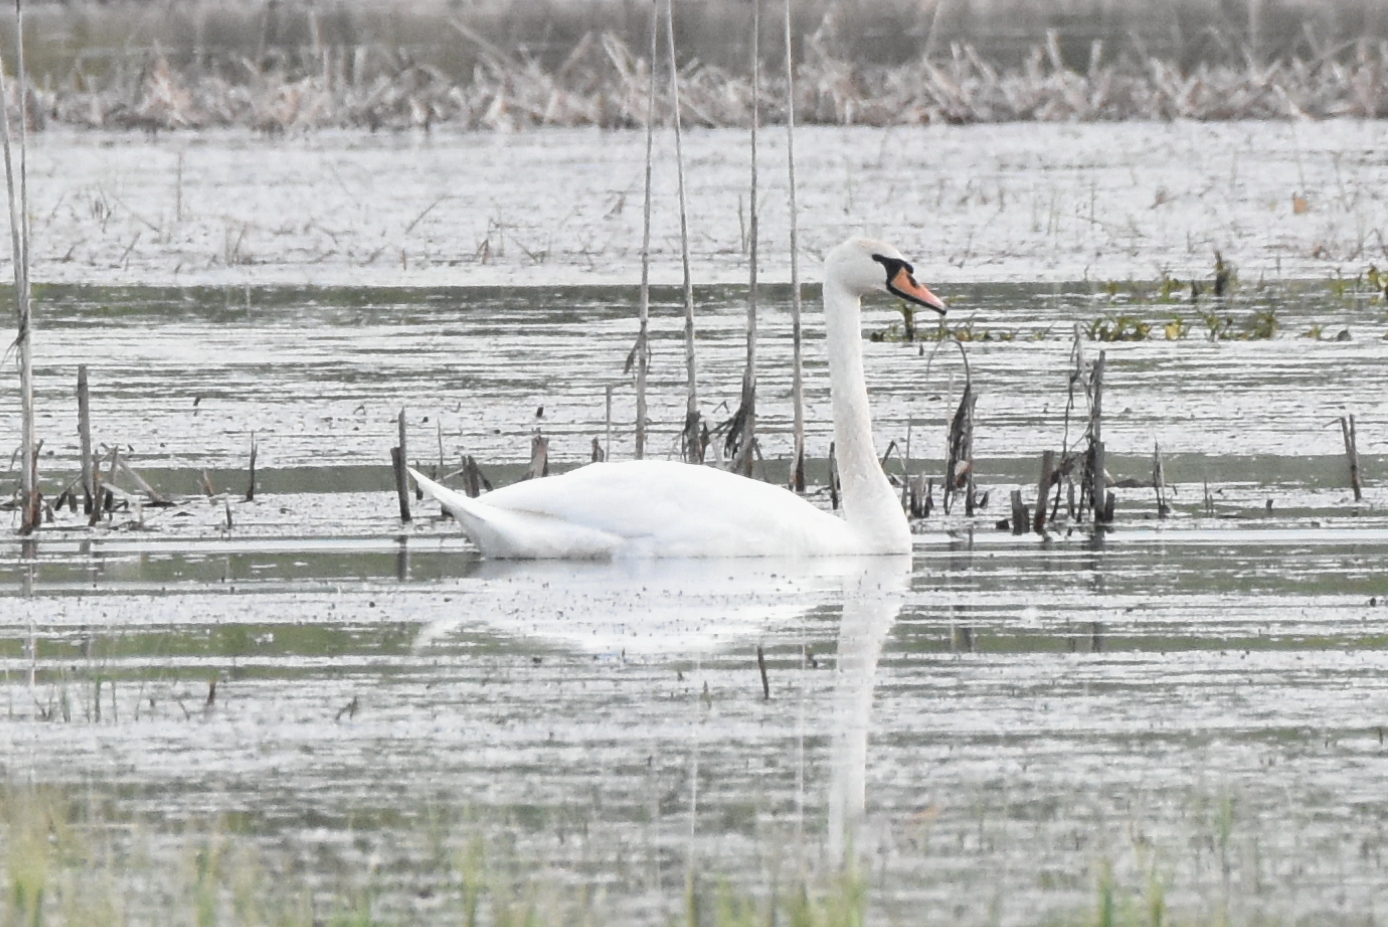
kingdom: Animalia
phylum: Chordata
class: Aves
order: Anseriformes
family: Anatidae
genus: Cygnus
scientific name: Cygnus olor
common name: Mute swan
